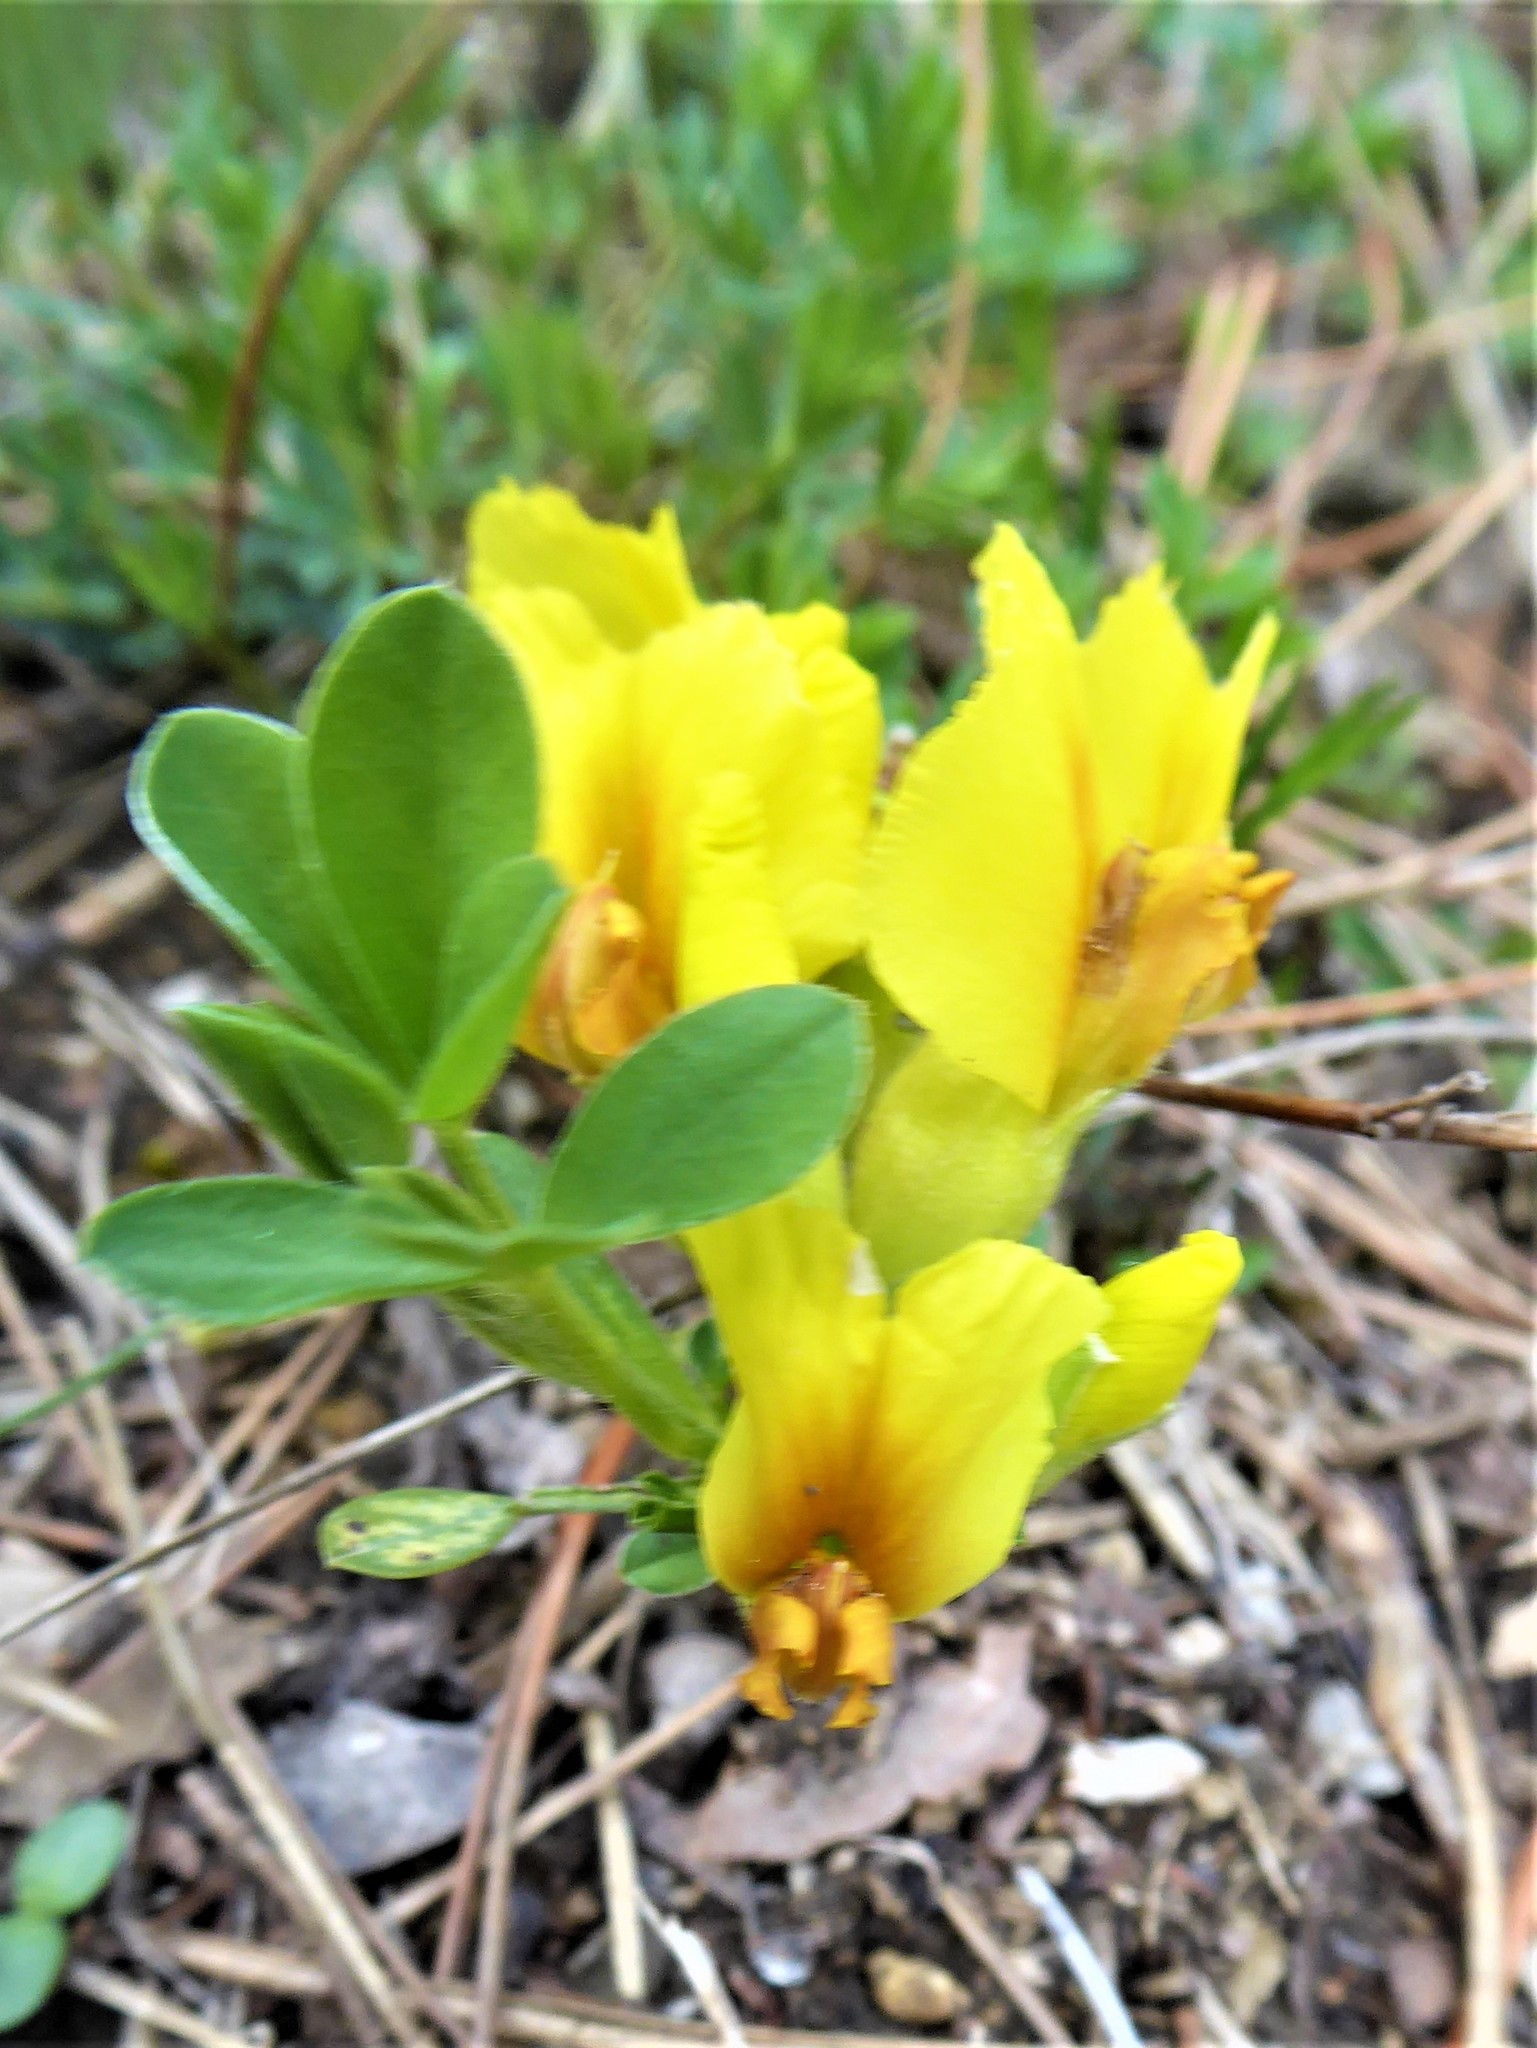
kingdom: Plantae
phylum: Tracheophyta
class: Magnoliopsida
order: Fabales
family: Fabaceae
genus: Chamaecytisus
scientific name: Chamaecytisus ratisbonensis
